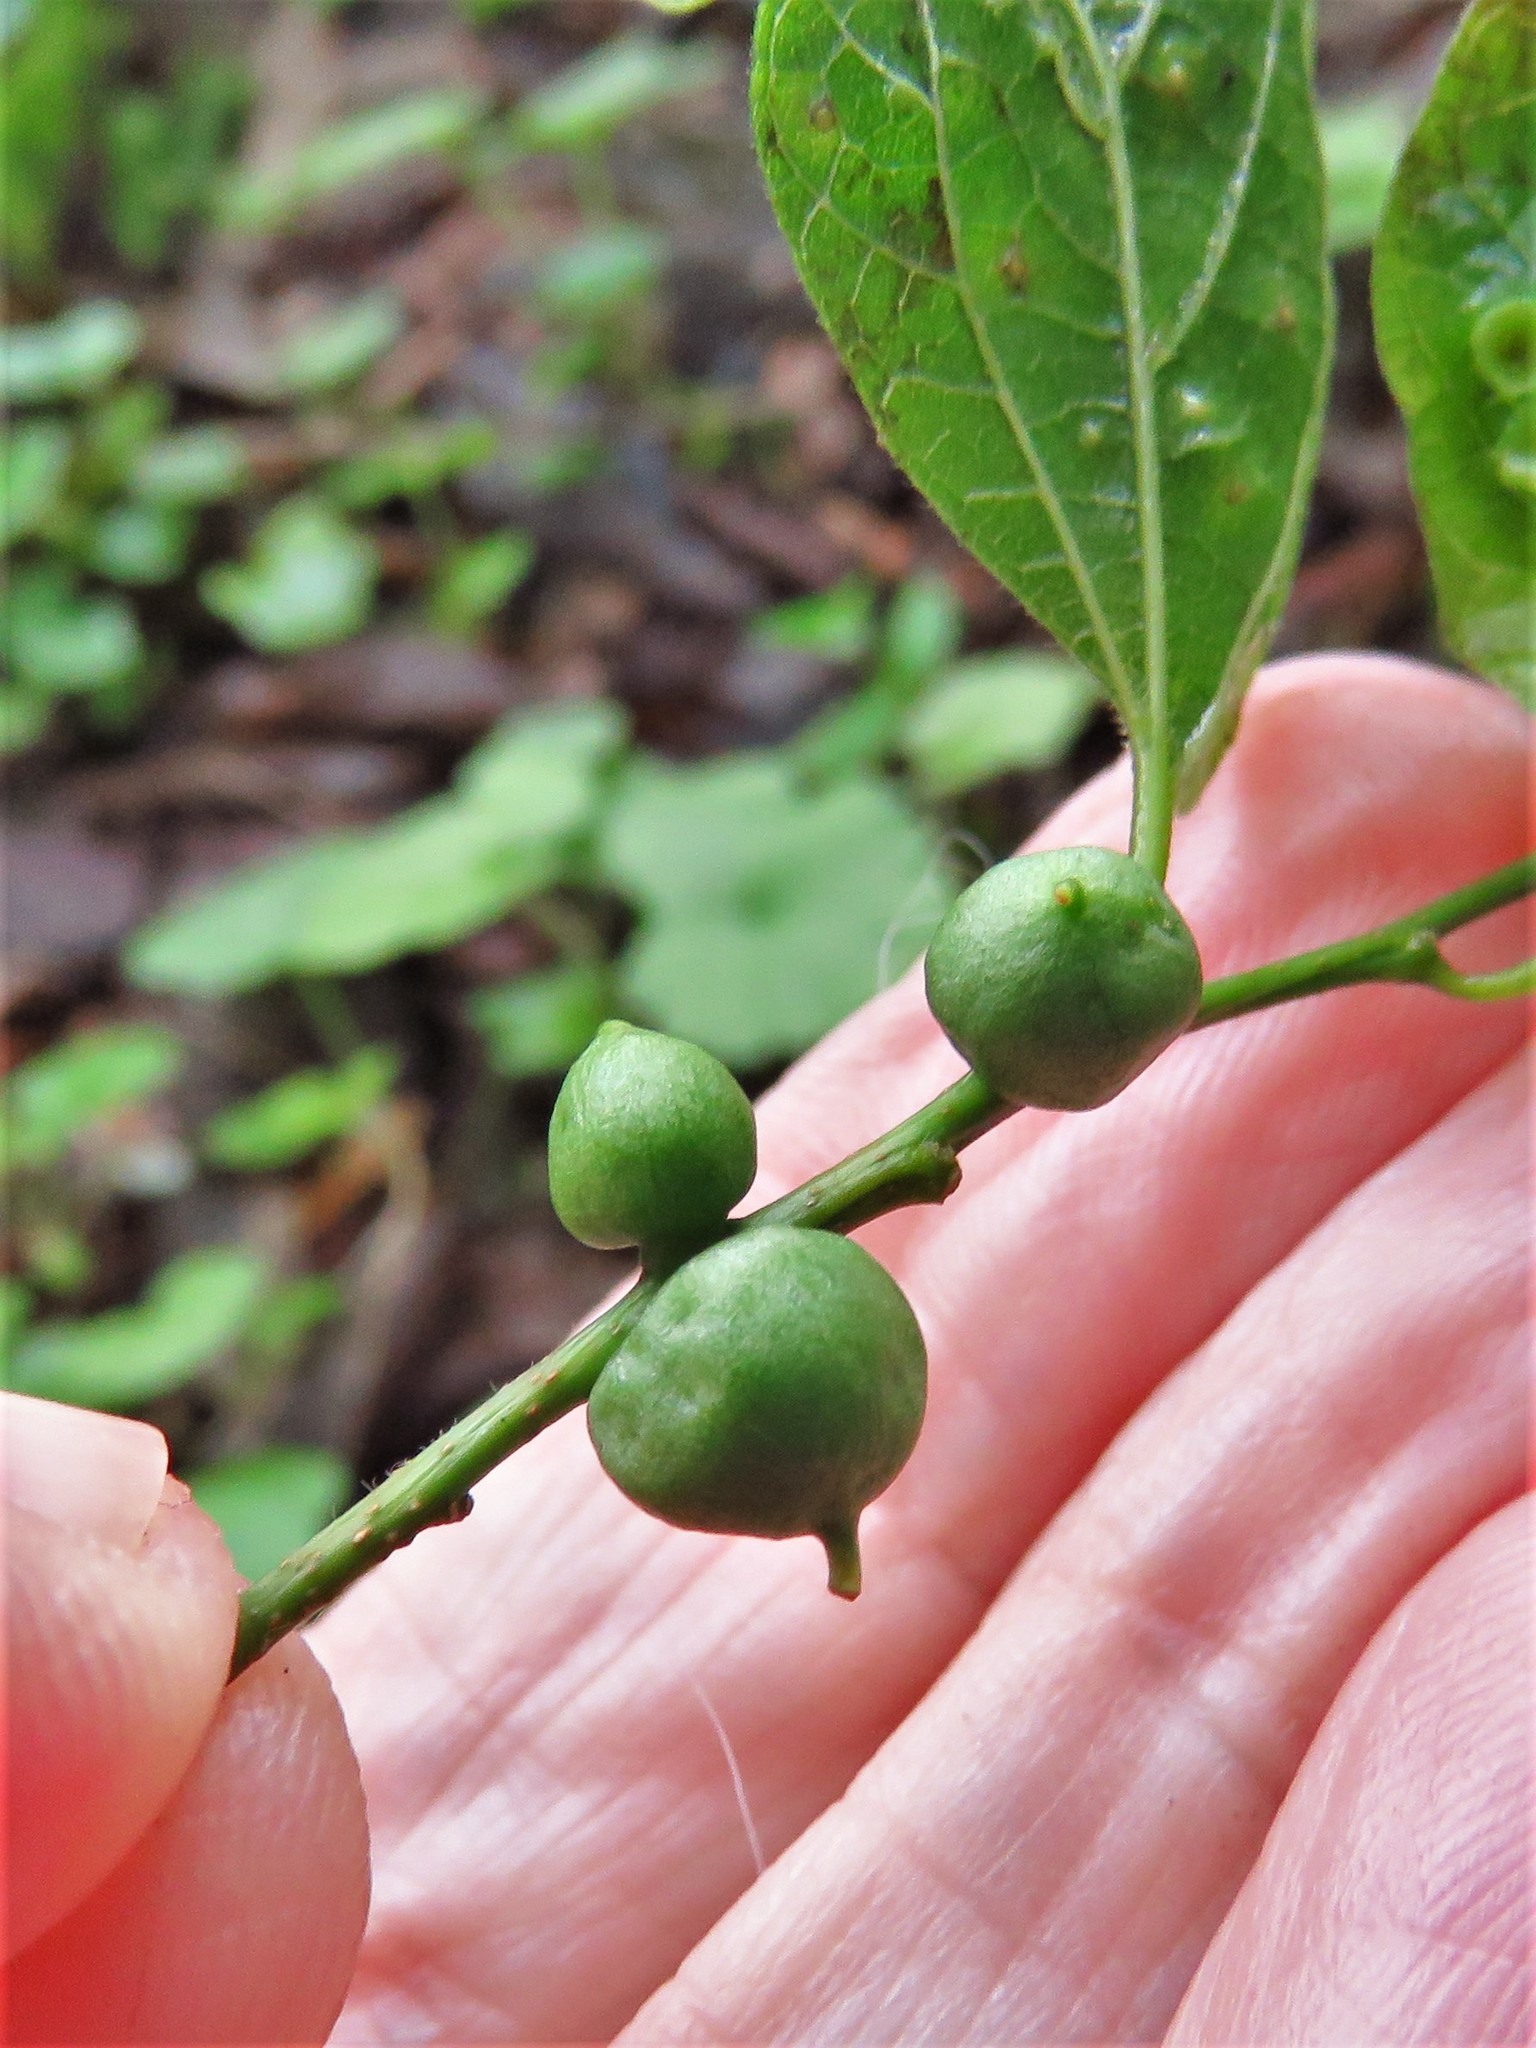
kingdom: Animalia
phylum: Arthropoda
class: Insecta
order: Diptera
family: Cecidomyiidae
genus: Celticecis
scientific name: Celticecis connata
